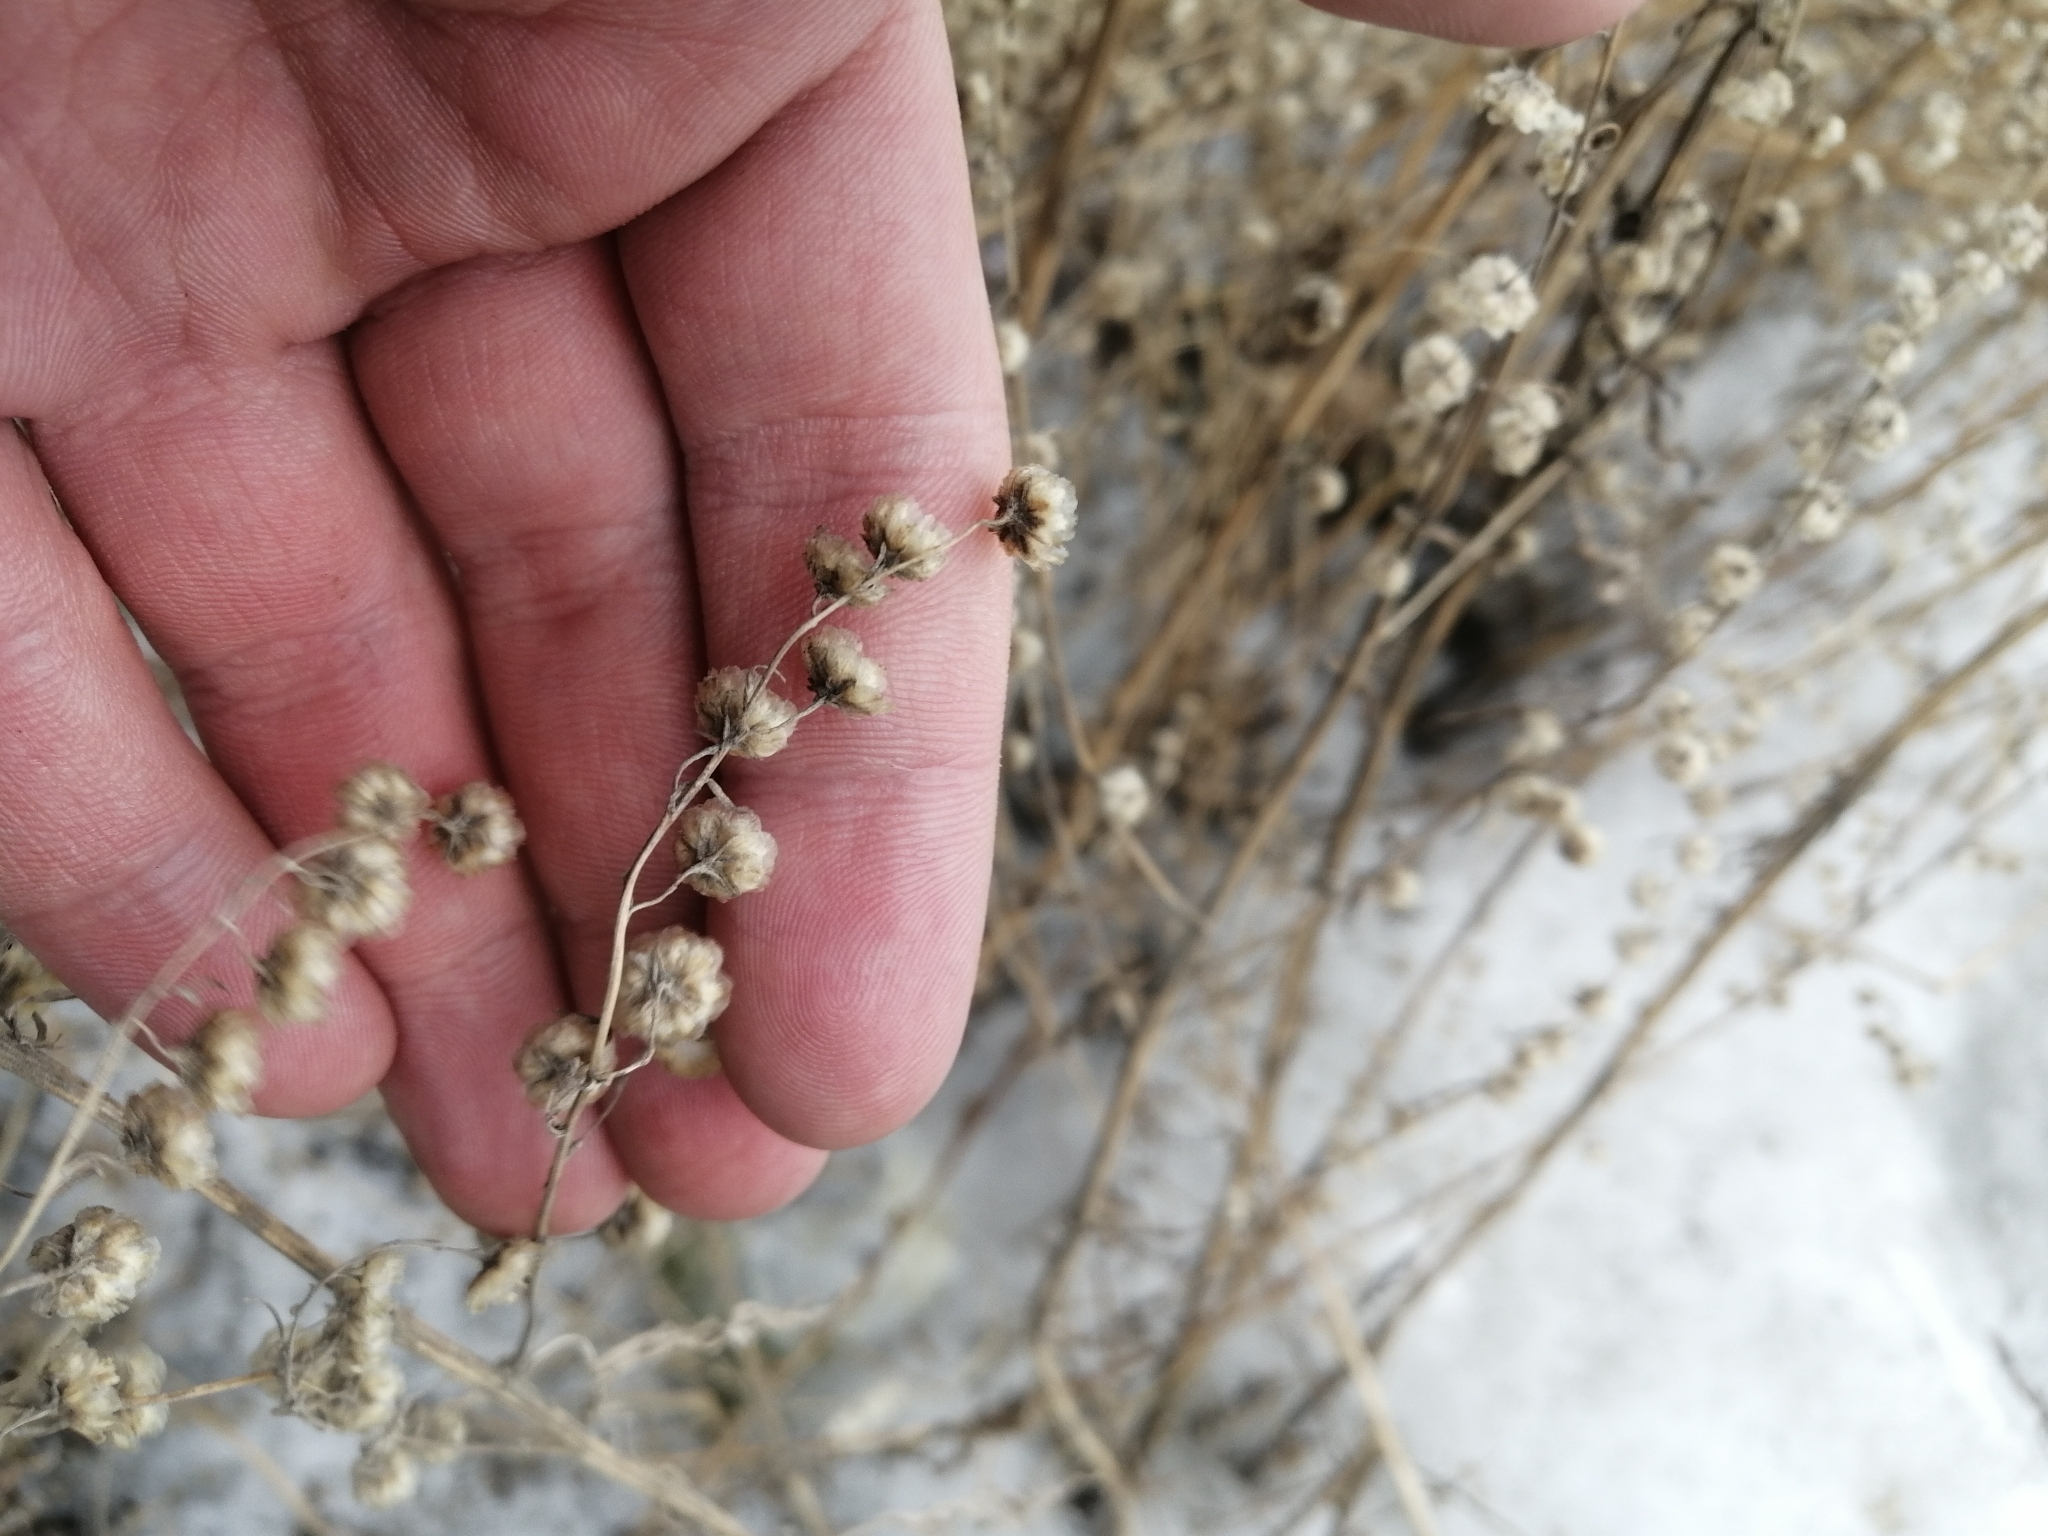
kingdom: Plantae
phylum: Tracheophyta
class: Magnoliopsida
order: Asterales
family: Asteraceae
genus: Artemisia
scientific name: Artemisia sieversiana
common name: Sieversian wormwood
